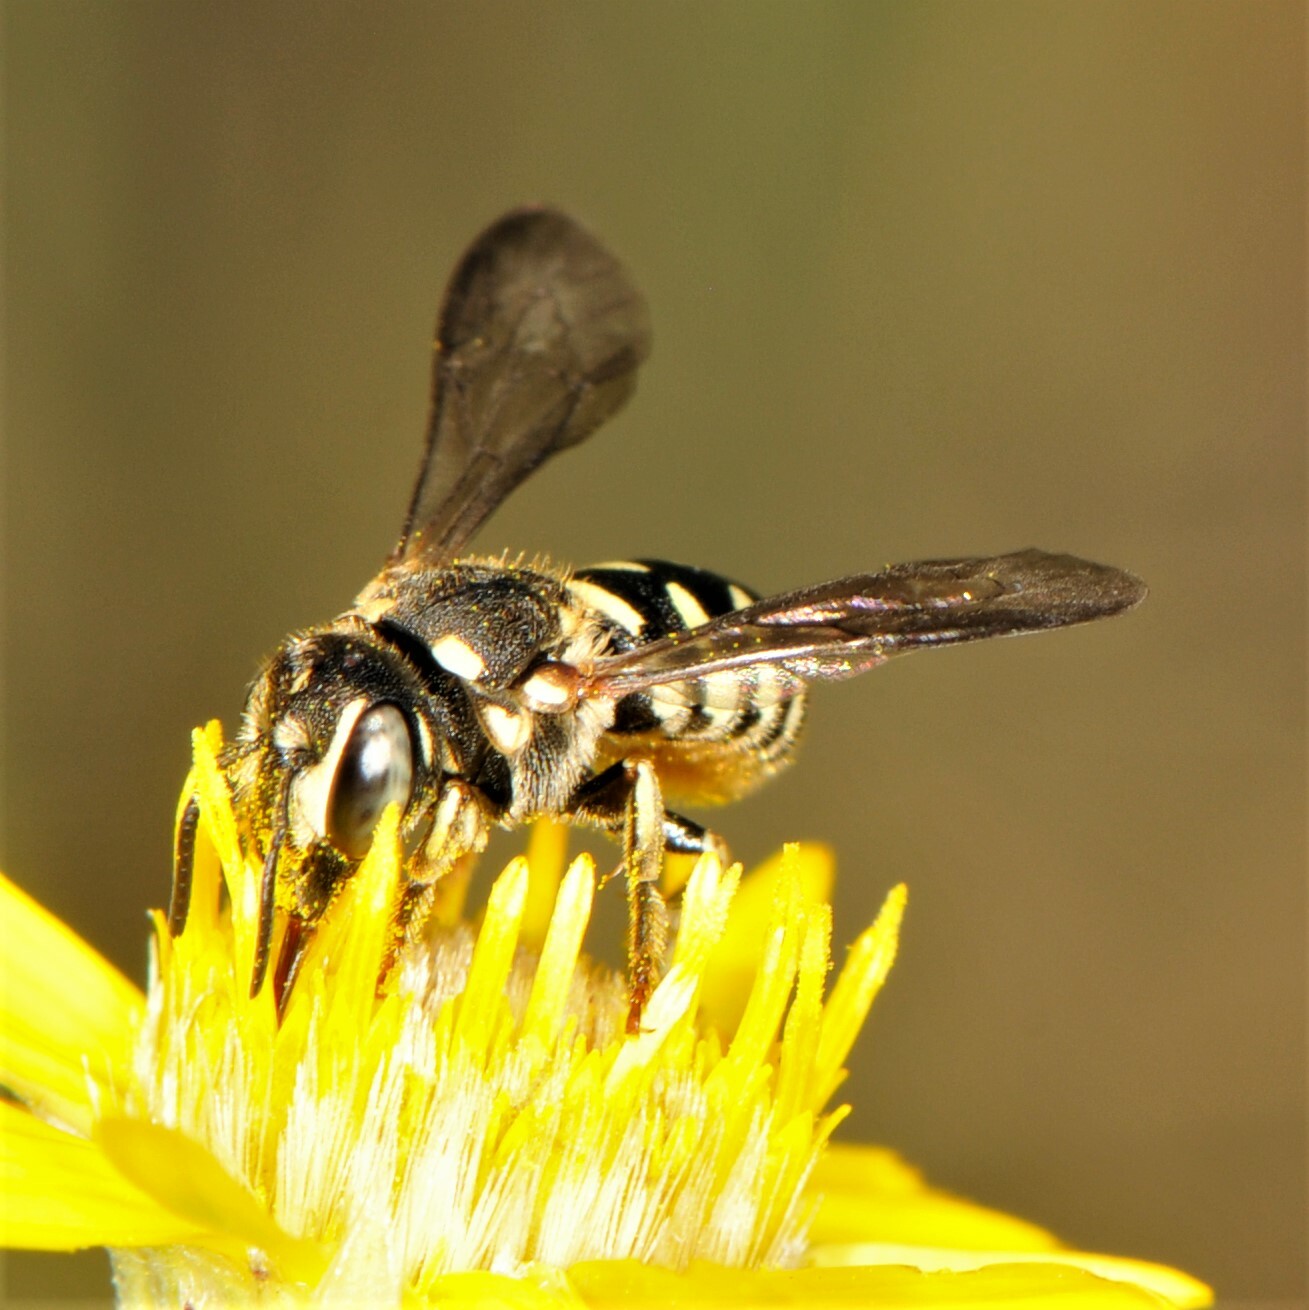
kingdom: Animalia
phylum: Arthropoda
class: Insecta
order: Hymenoptera
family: Megachilidae
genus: Dianthidium
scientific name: Dianthidium
